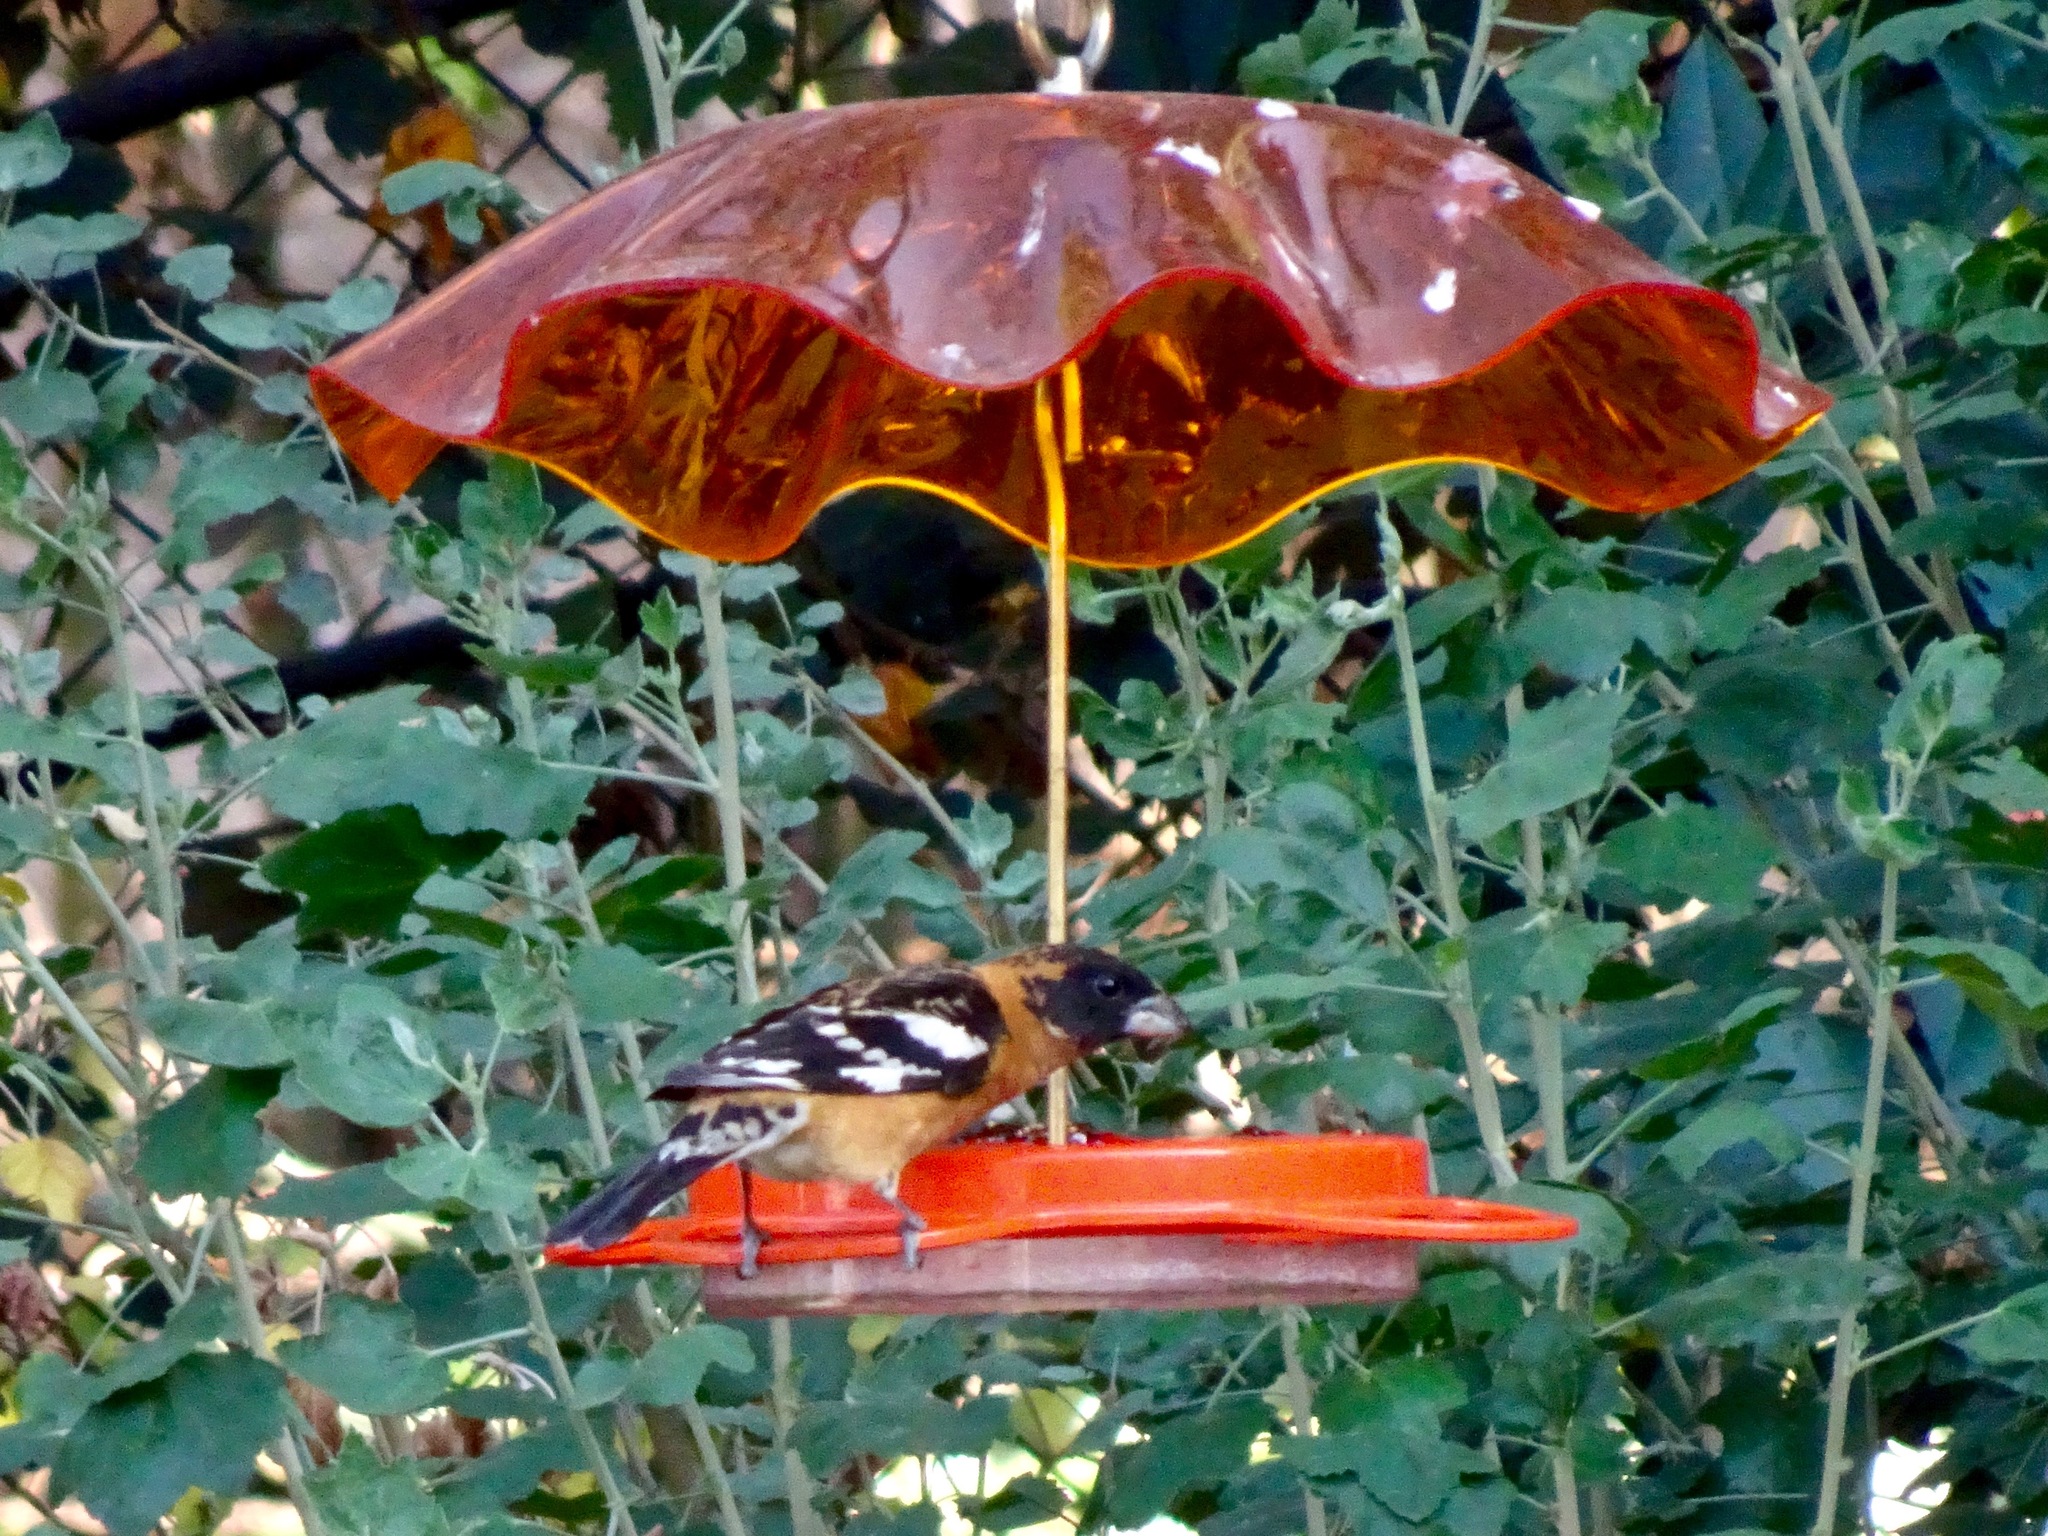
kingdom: Animalia
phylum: Chordata
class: Aves
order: Passeriformes
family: Cardinalidae
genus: Pheucticus
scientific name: Pheucticus melanocephalus
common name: Black-headed grosbeak
